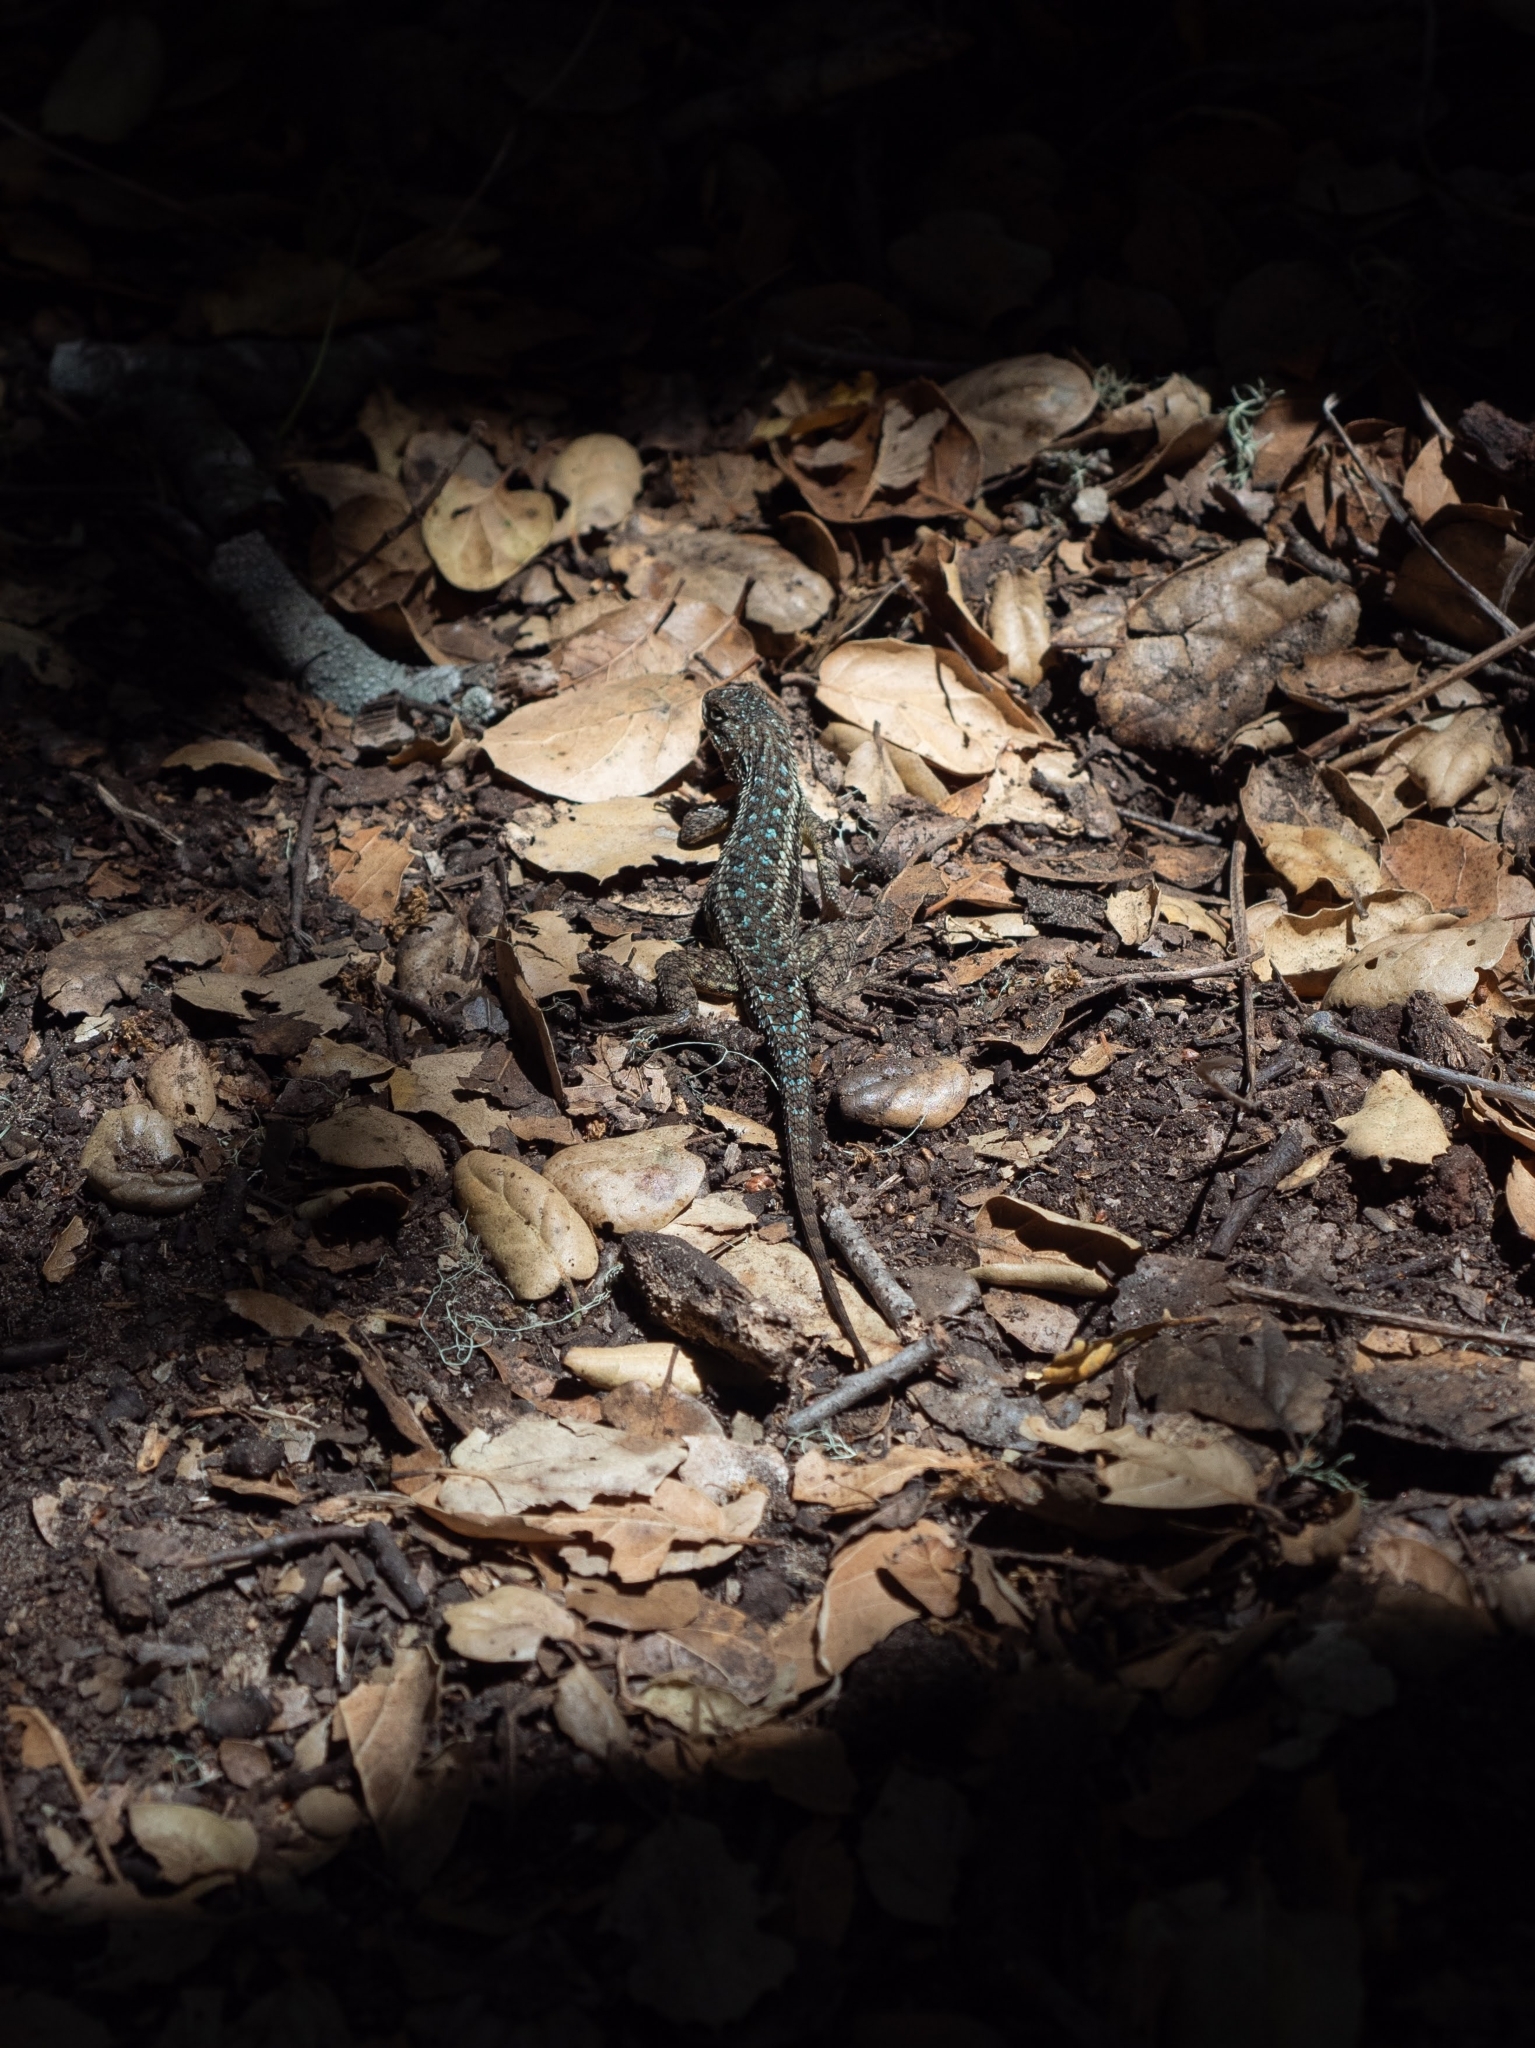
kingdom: Animalia
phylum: Chordata
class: Squamata
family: Phrynosomatidae
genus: Sceloporus
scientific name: Sceloporus occidentalis
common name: Western fence lizard
